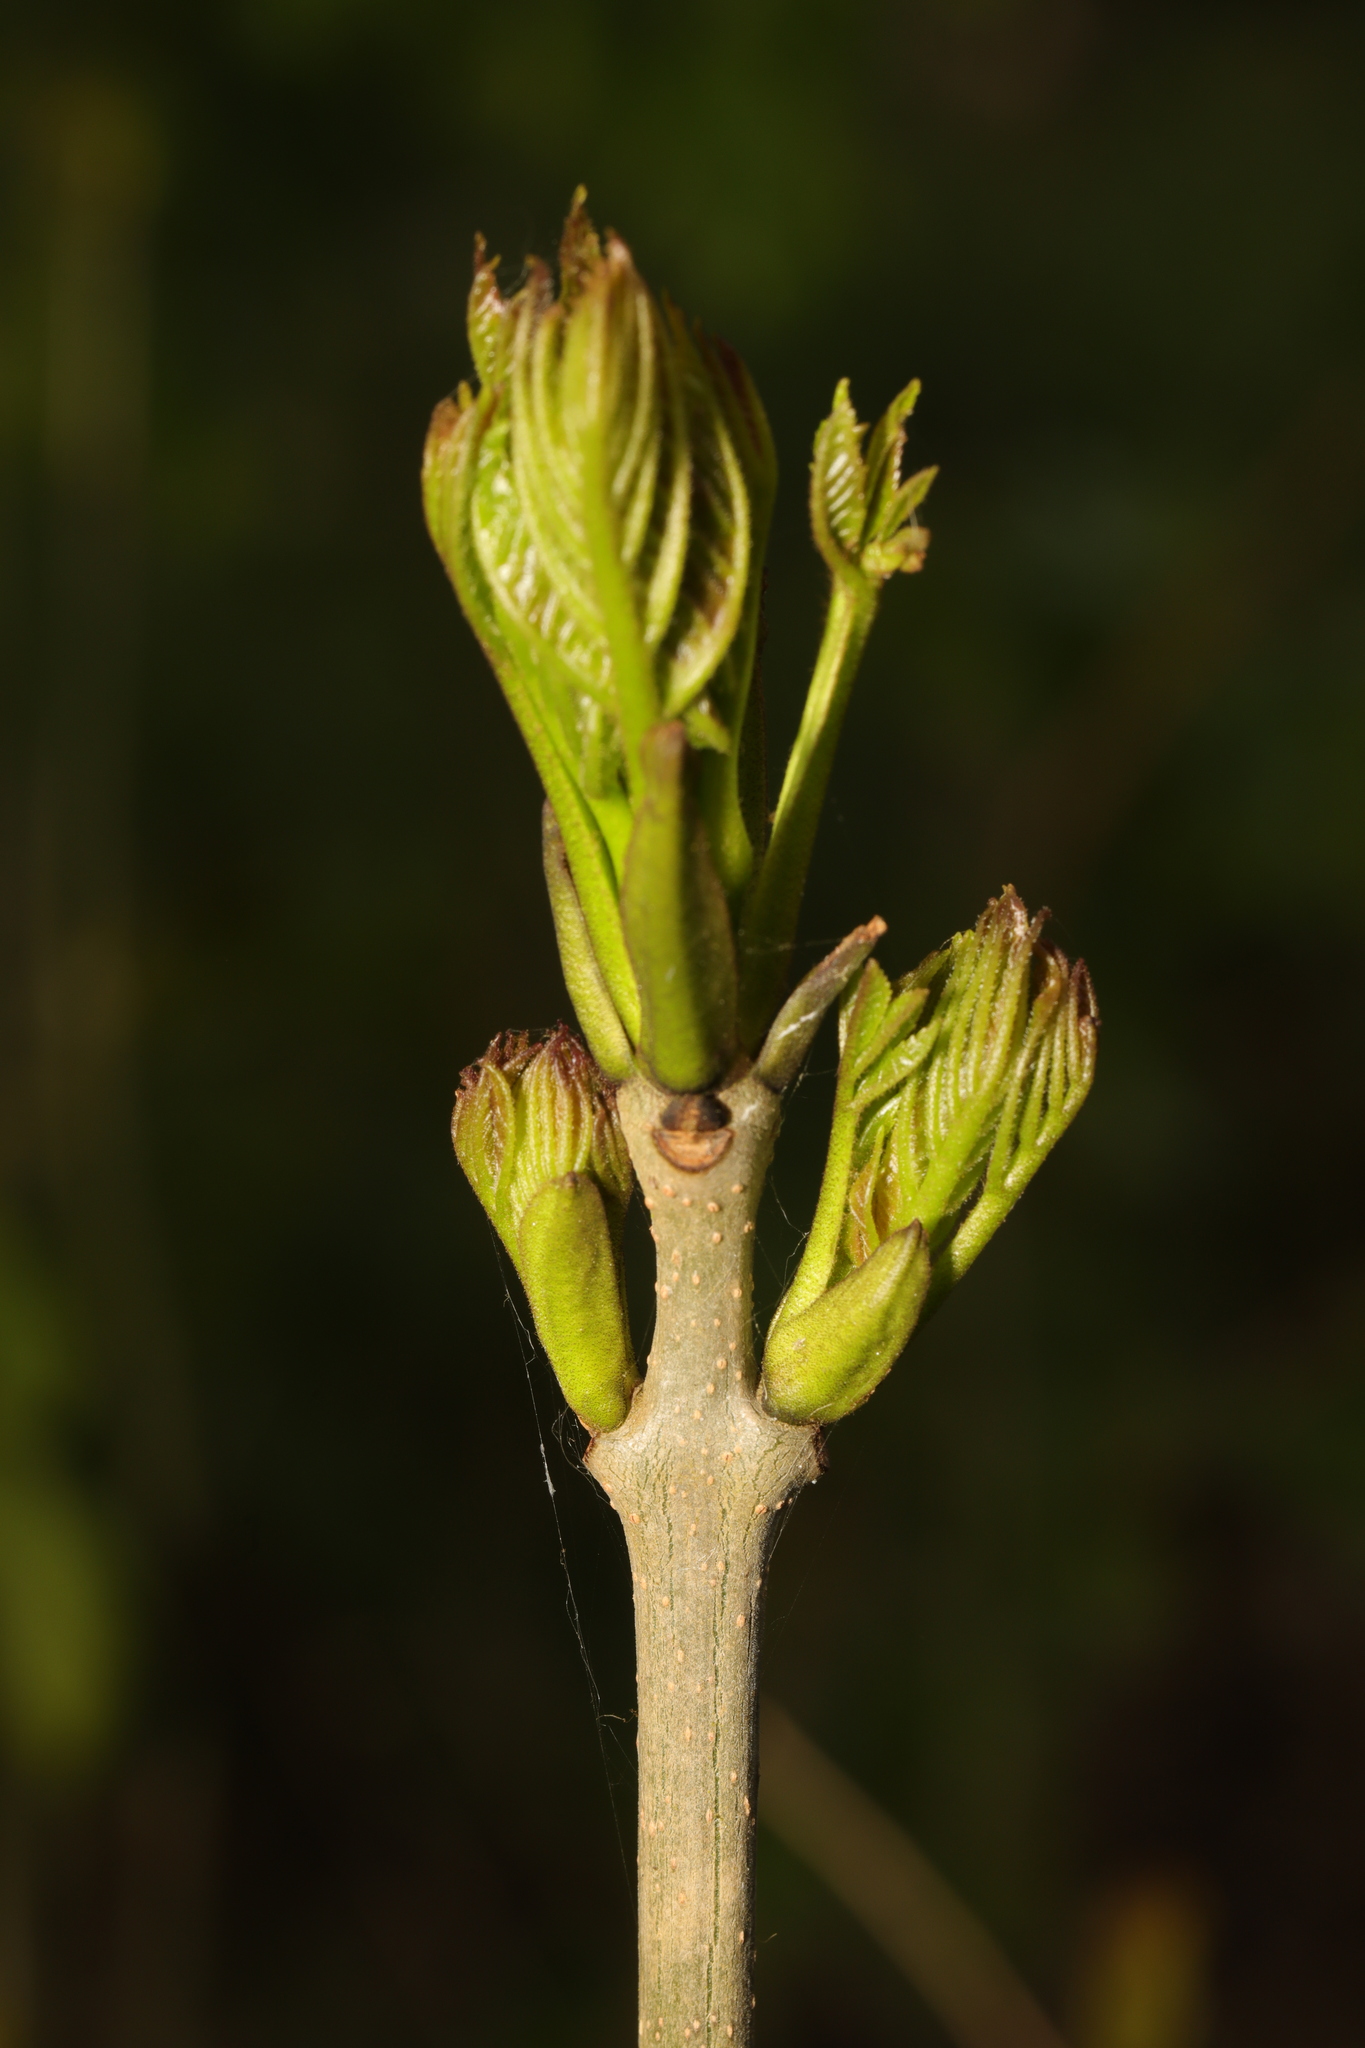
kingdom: Plantae
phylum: Tracheophyta
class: Magnoliopsida
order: Lamiales
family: Oleaceae
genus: Fraxinus
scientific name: Fraxinus excelsior
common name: European ash
